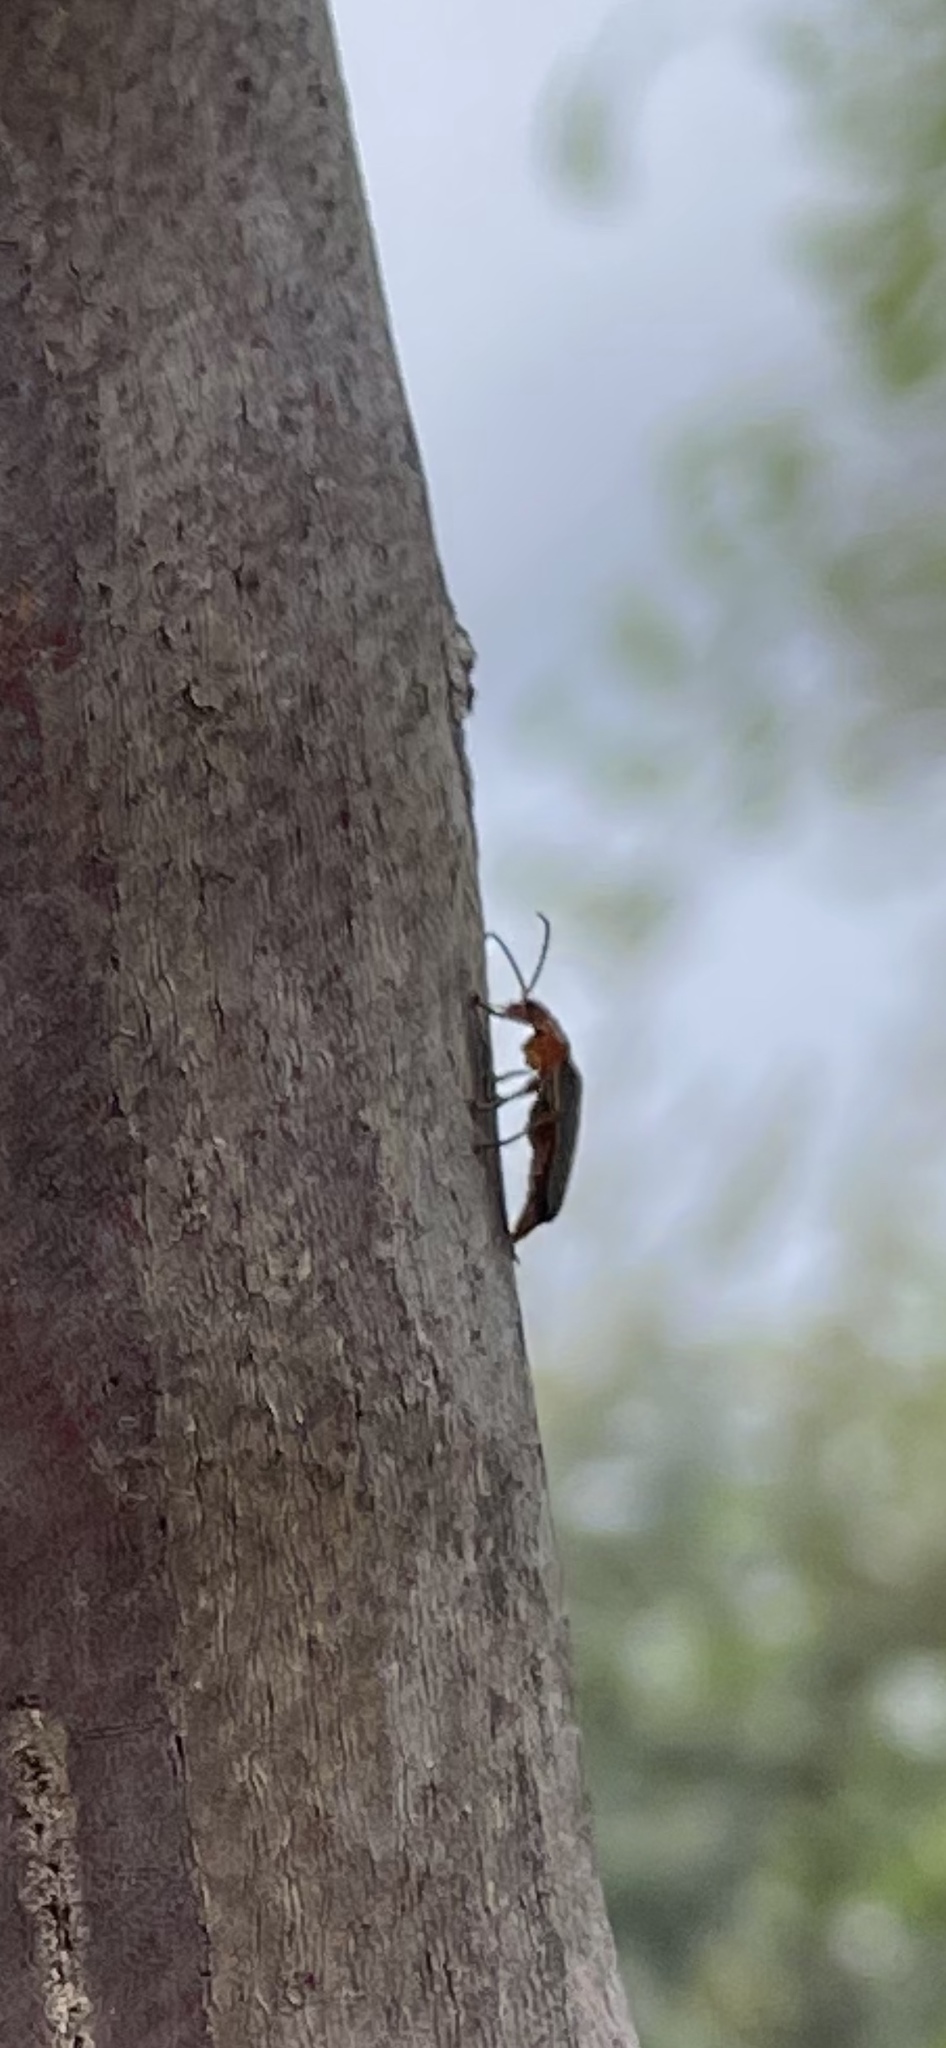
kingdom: Animalia
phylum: Arthropoda
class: Insecta
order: Coleoptera
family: Cantharidae
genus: Atalantycha
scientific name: Atalantycha bilineata
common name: Two-lined leatherwing
